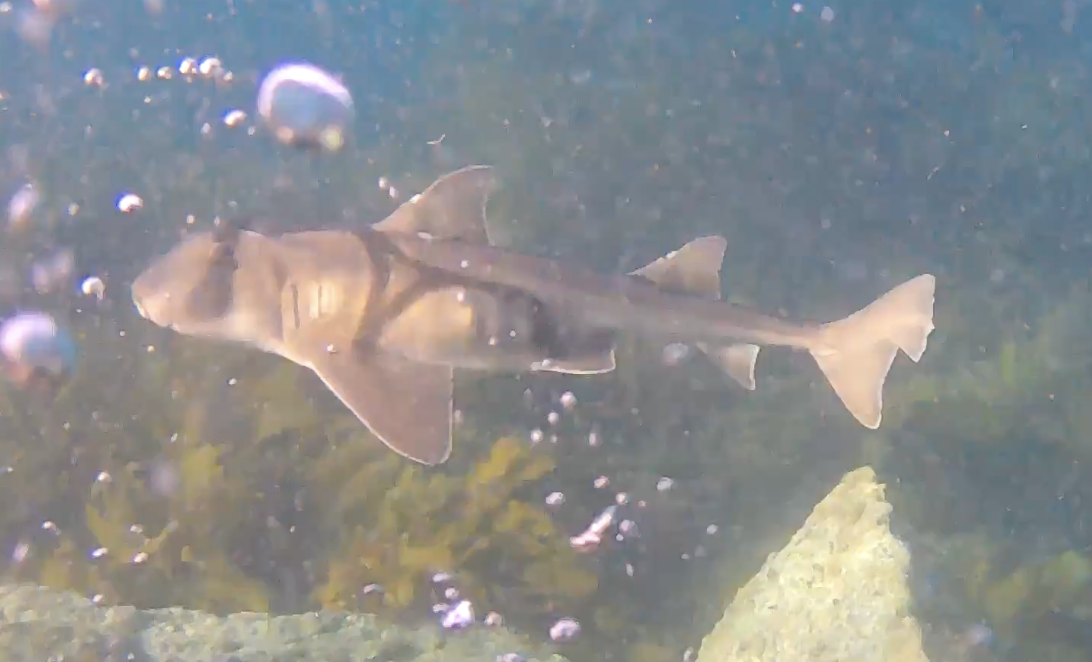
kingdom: Animalia
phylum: Chordata
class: Elasmobranchii
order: Heterodontiformes
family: Heterodontidae
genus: Heterodontus
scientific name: Heterodontus portusjacksoni
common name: Port jackson shark
